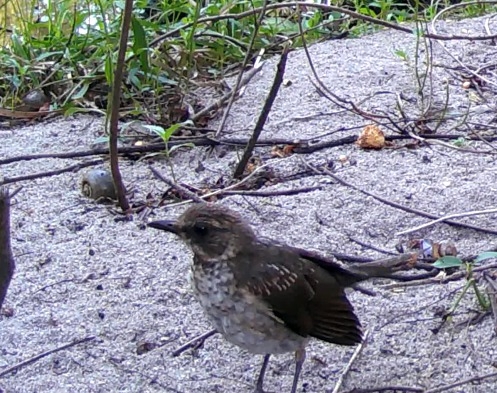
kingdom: Animalia
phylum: Chordata
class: Aves
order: Passeriformes
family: Turdidae
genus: Turdus
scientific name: Turdus amaurochalinus
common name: Creamy-bellied thrush
